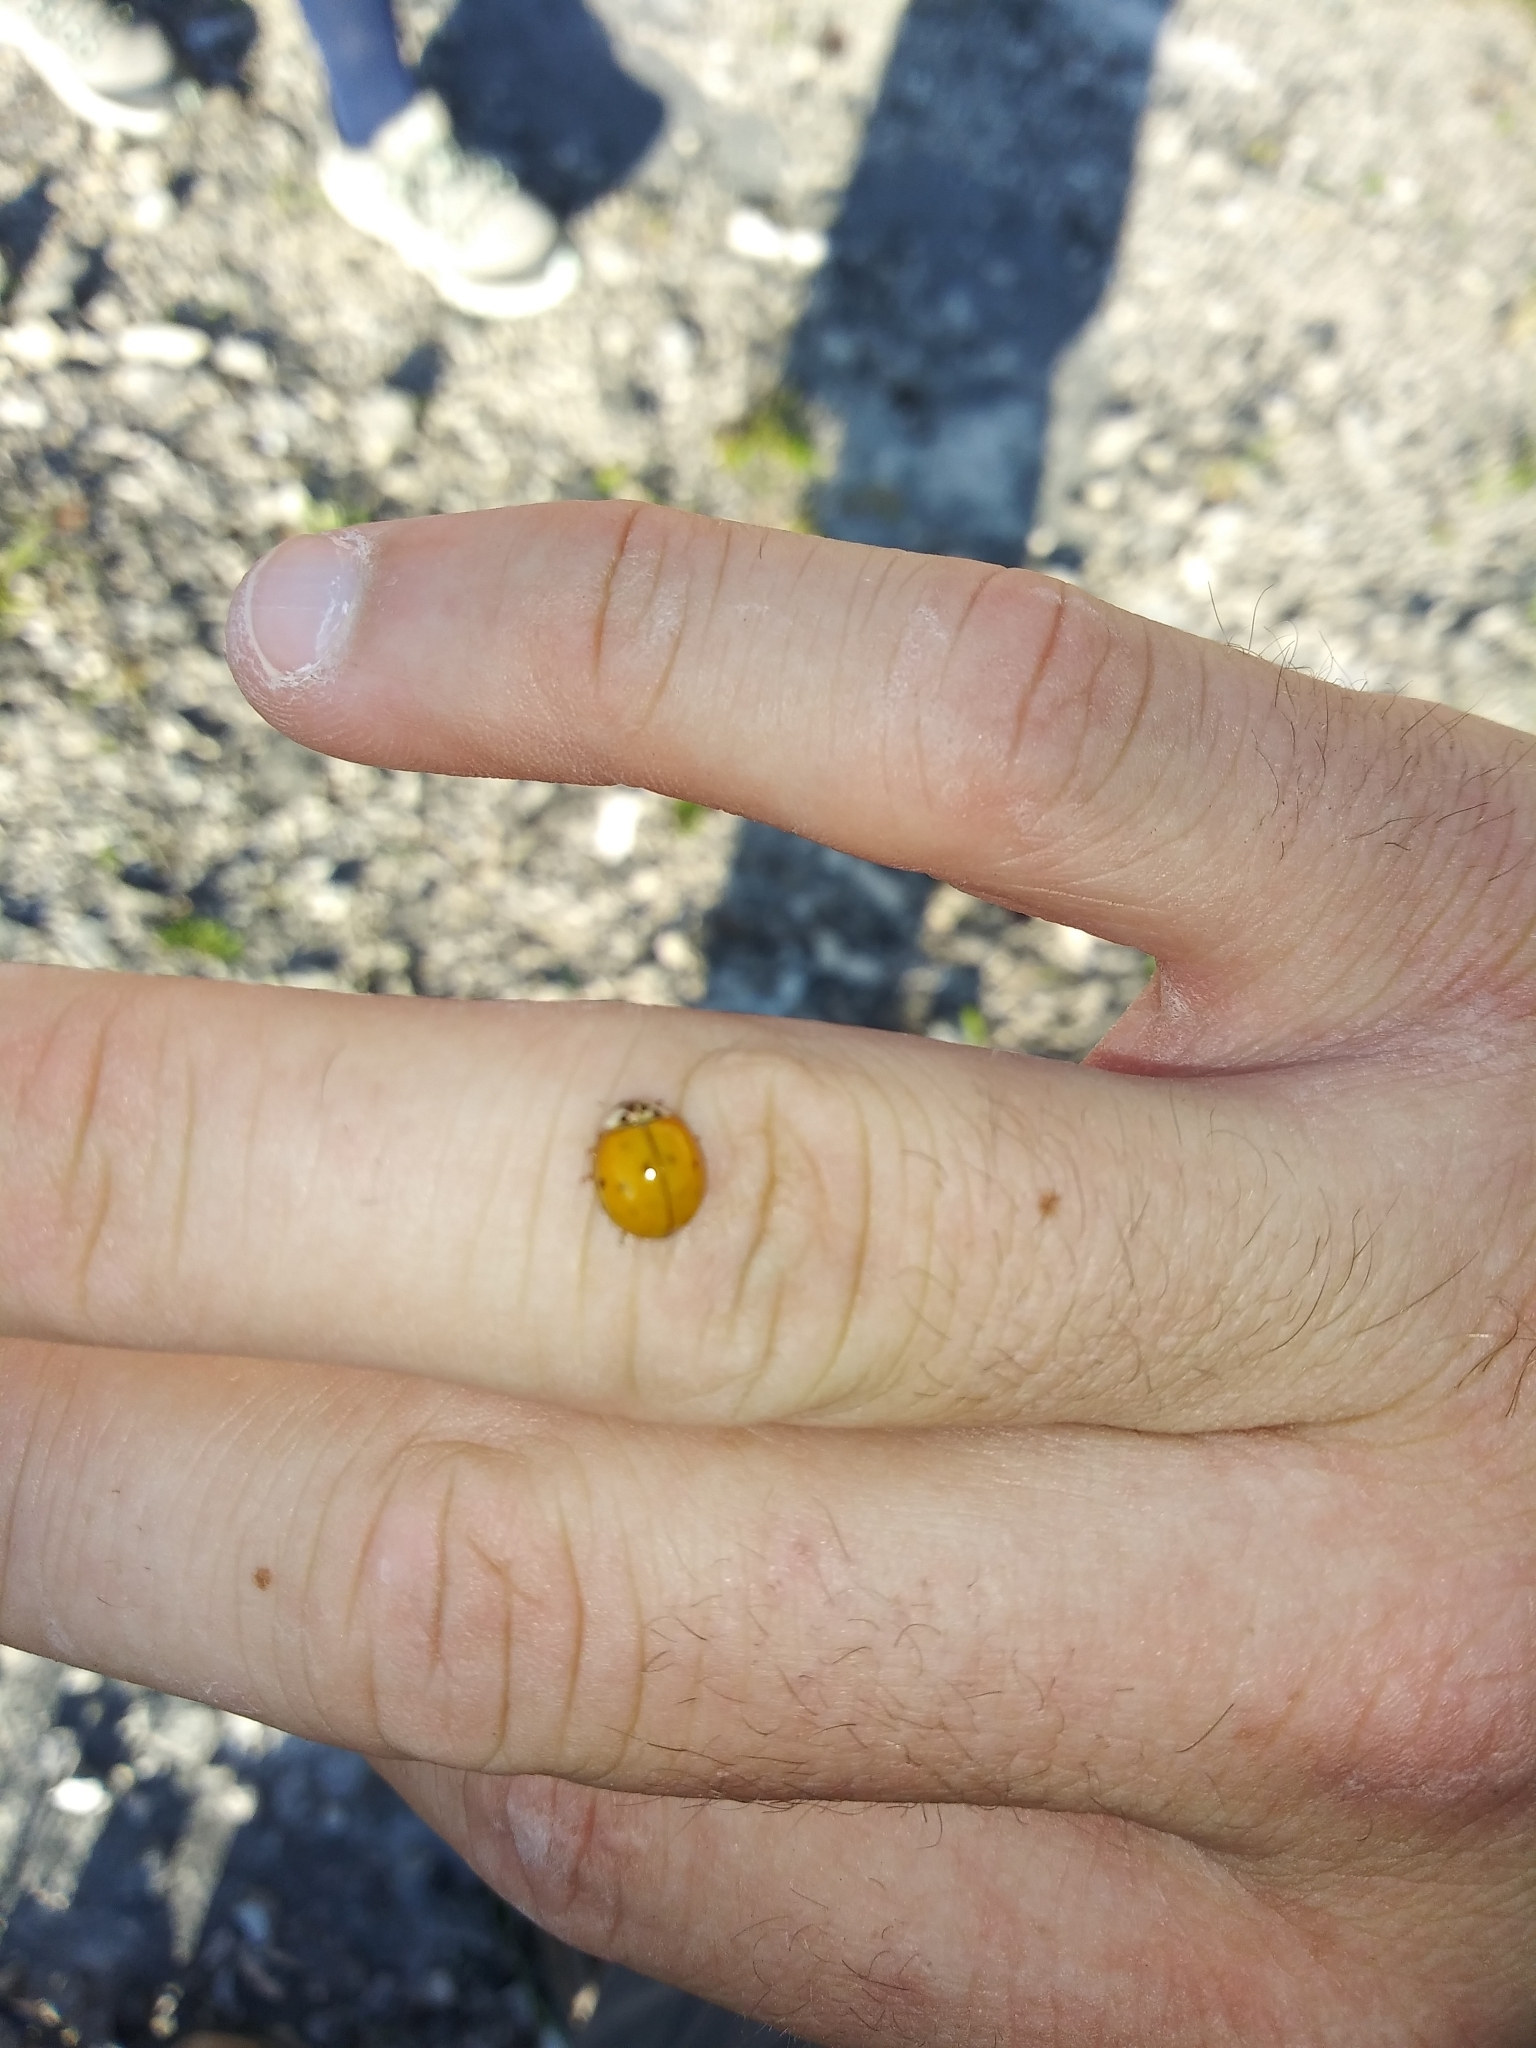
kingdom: Animalia
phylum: Arthropoda
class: Insecta
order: Coleoptera
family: Coccinellidae
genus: Harmonia
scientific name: Harmonia axyridis
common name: Harlequin ladybird
